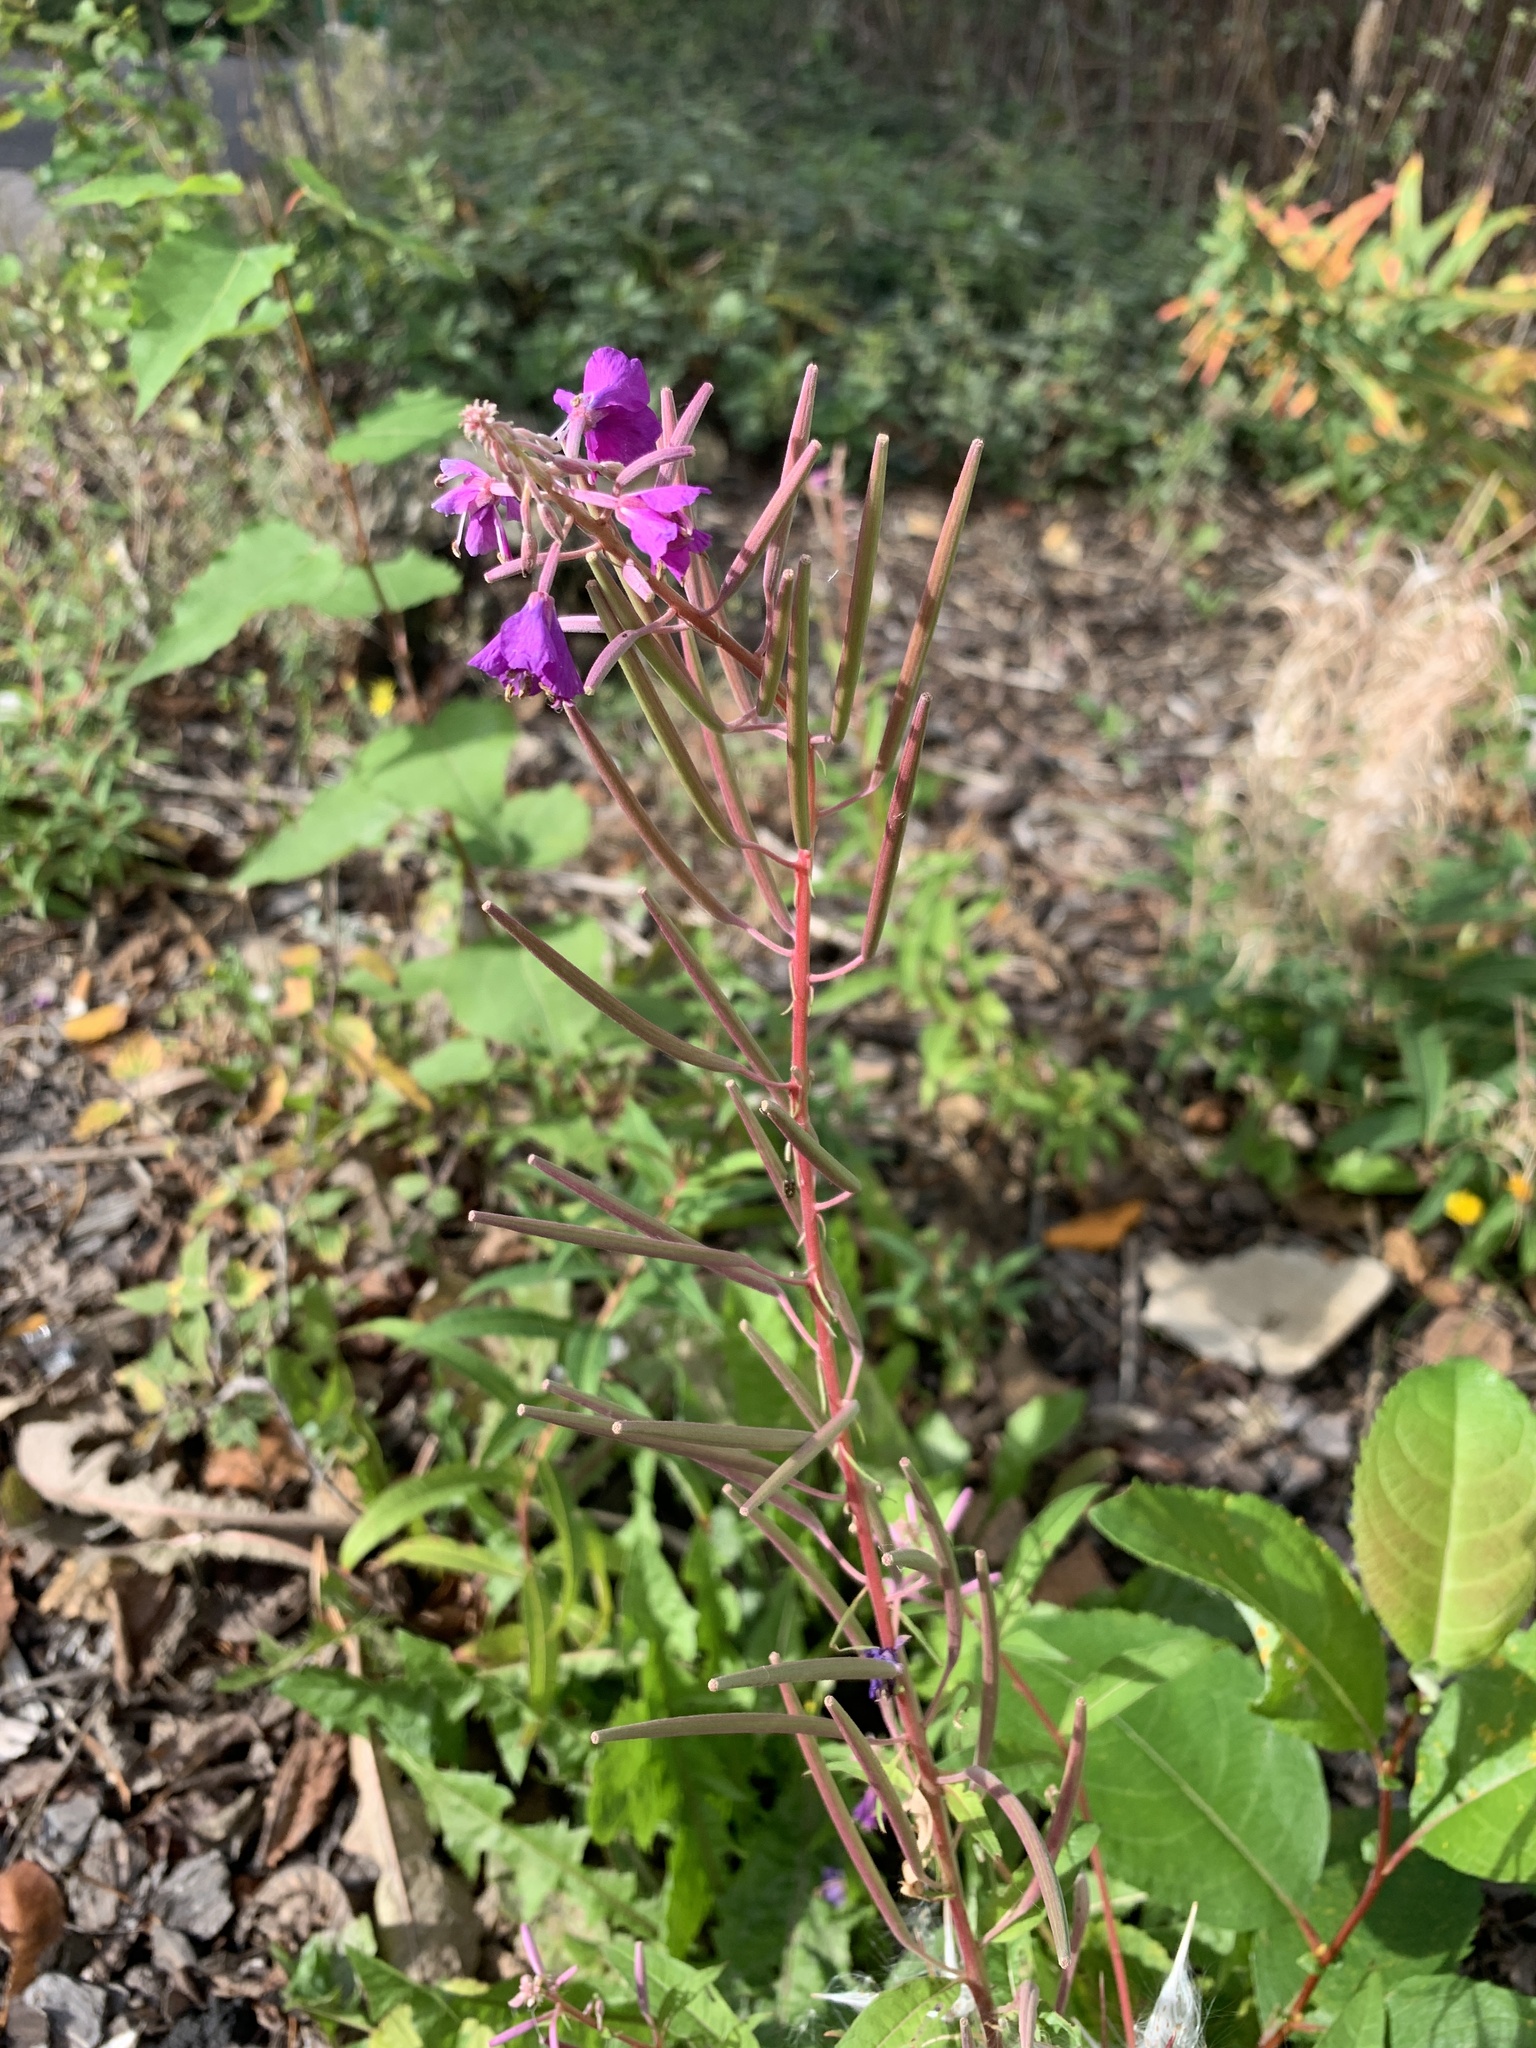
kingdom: Plantae
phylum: Tracheophyta
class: Magnoliopsida
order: Myrtales
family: Onagraceae
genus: Chamaenerion
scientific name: Chamaenerion angustifolium
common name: Fireweed
